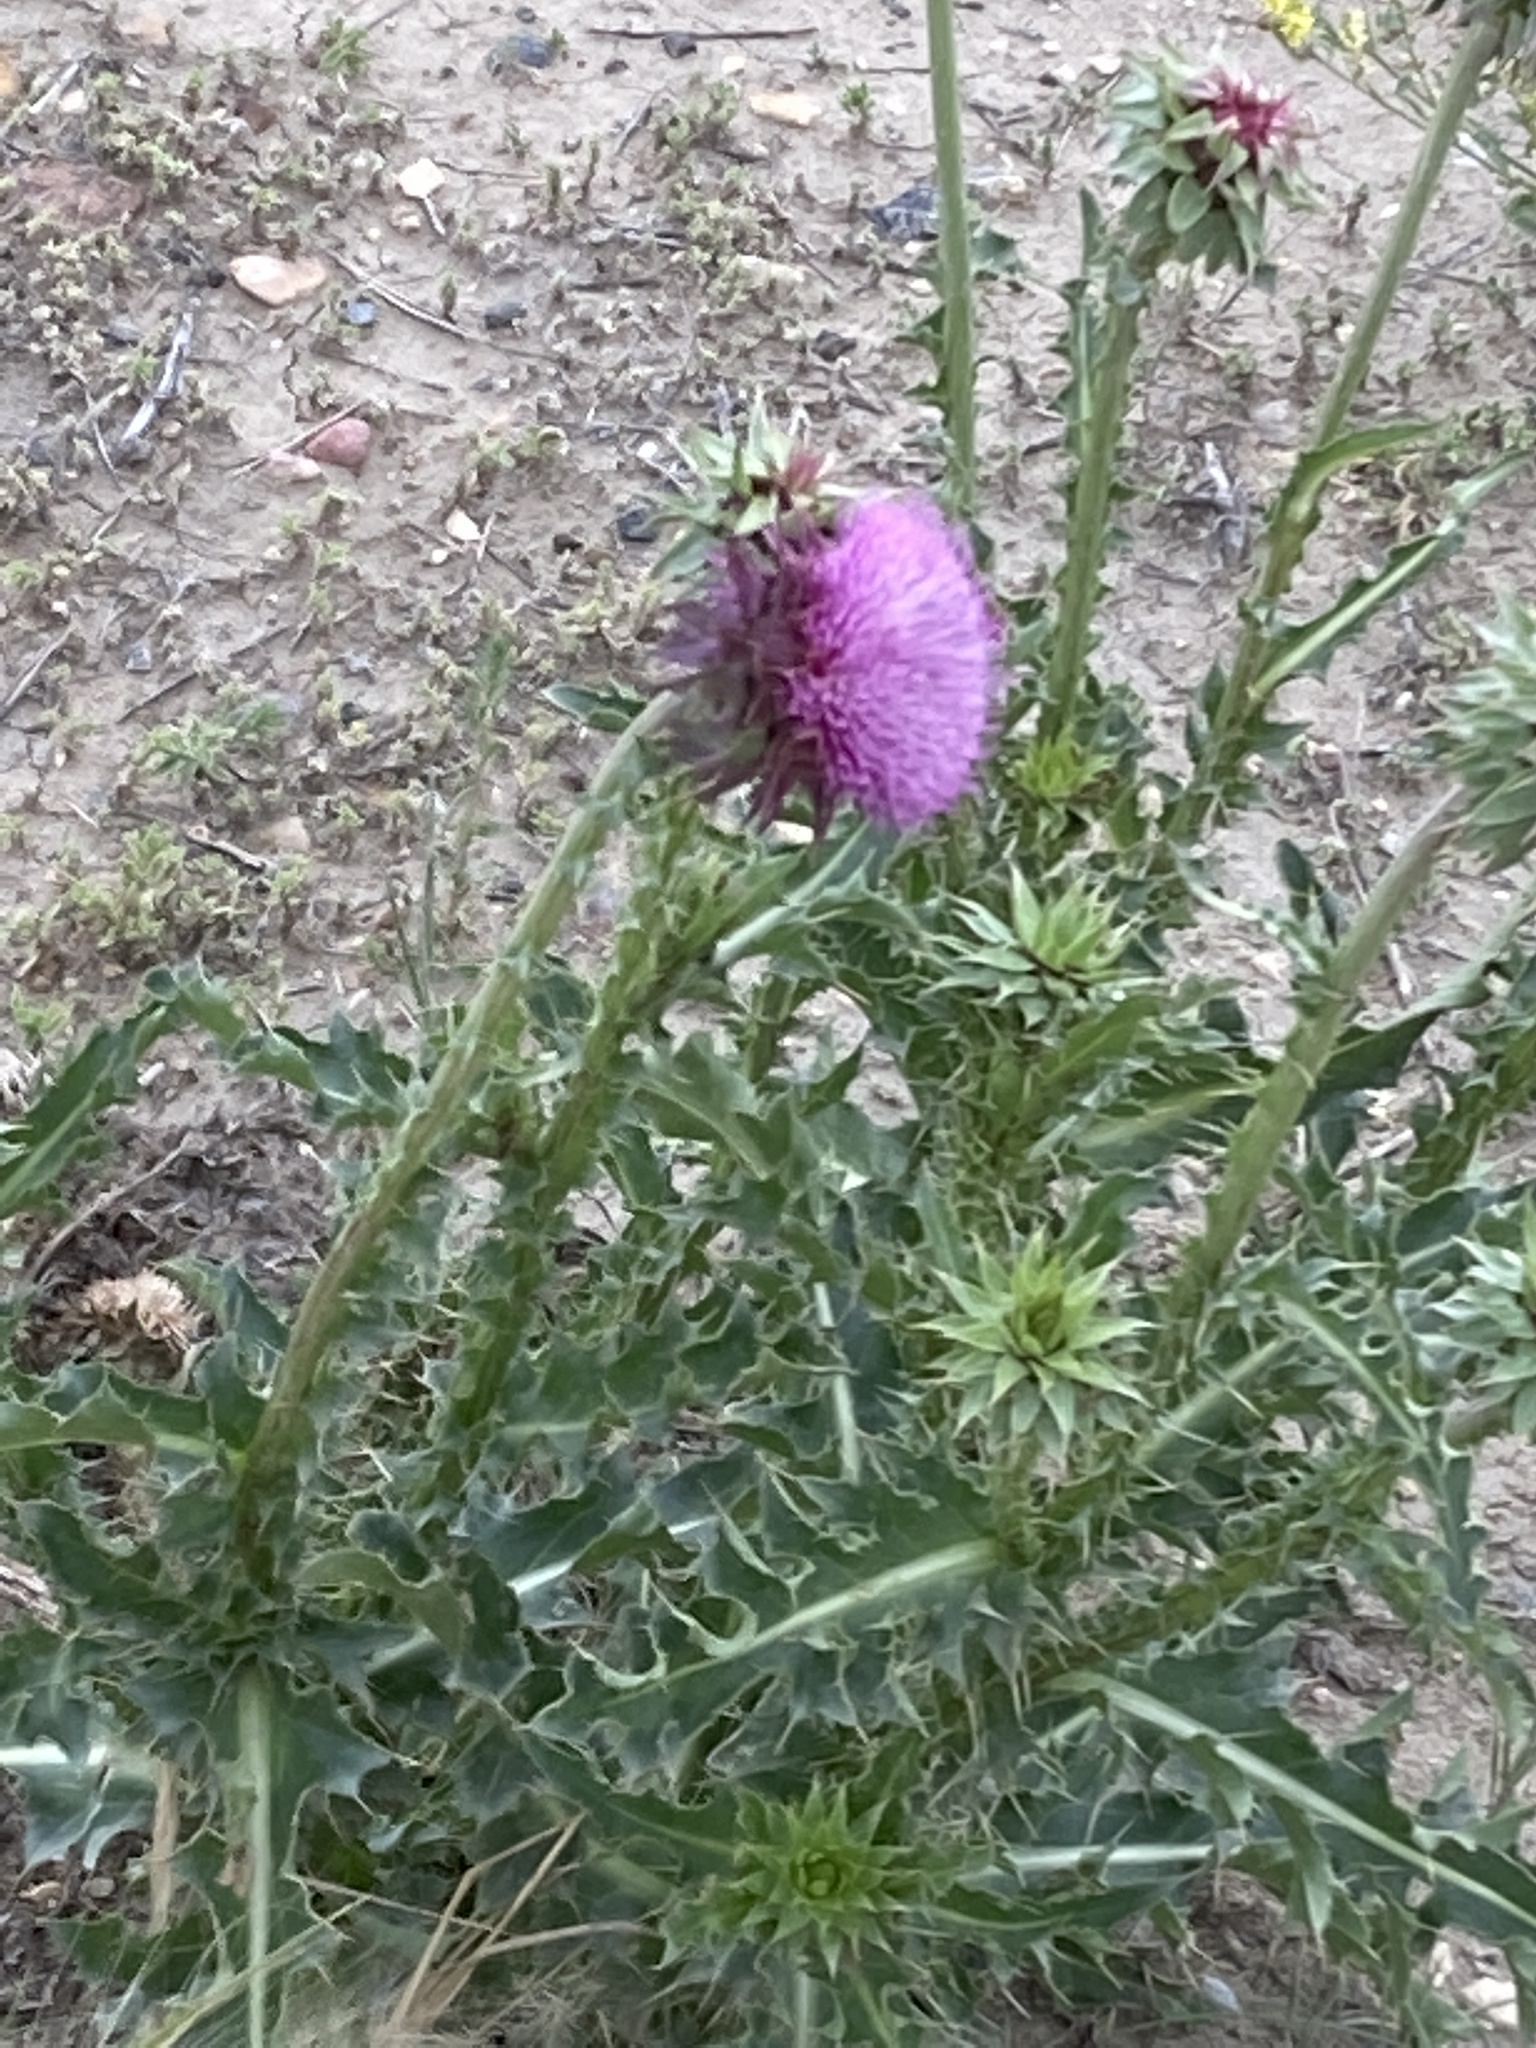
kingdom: Plantae
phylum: Tracheophyta
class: Magnoliopsida
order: Asterales
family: Asteraceae
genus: Carduus
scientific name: Carduus nutans
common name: Musk thistle
